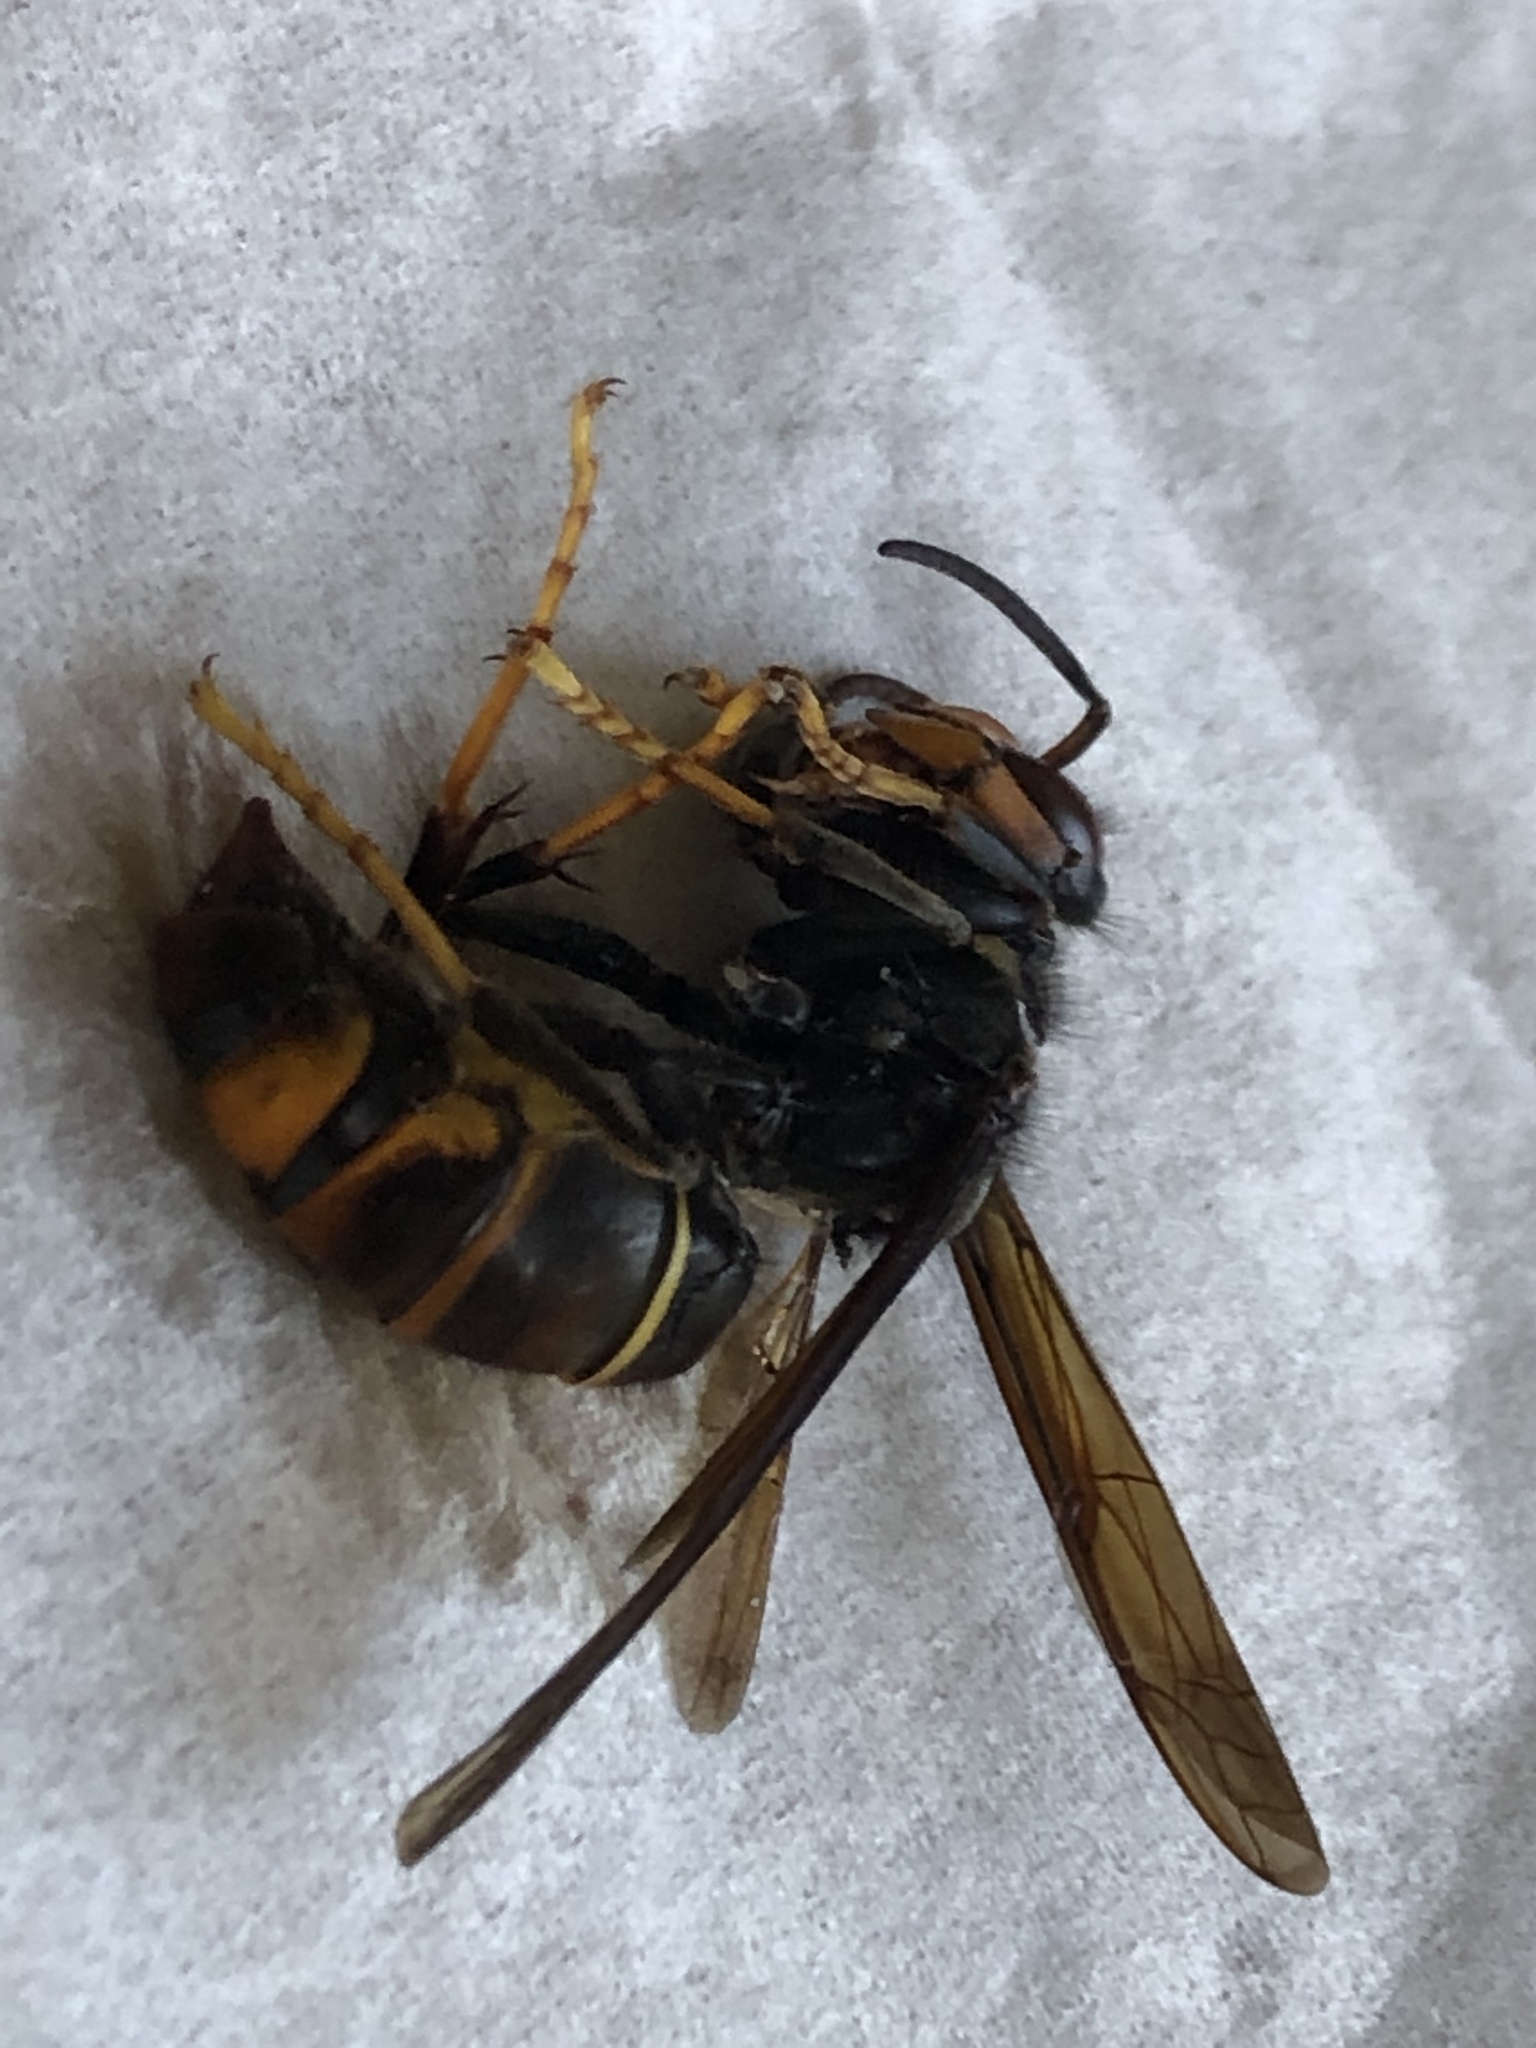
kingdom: Animalia
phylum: Arthropoda
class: Insecta
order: Hymenoptera
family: Vespidae
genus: Vespa
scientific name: Vespa velutina
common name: Asian hornet
